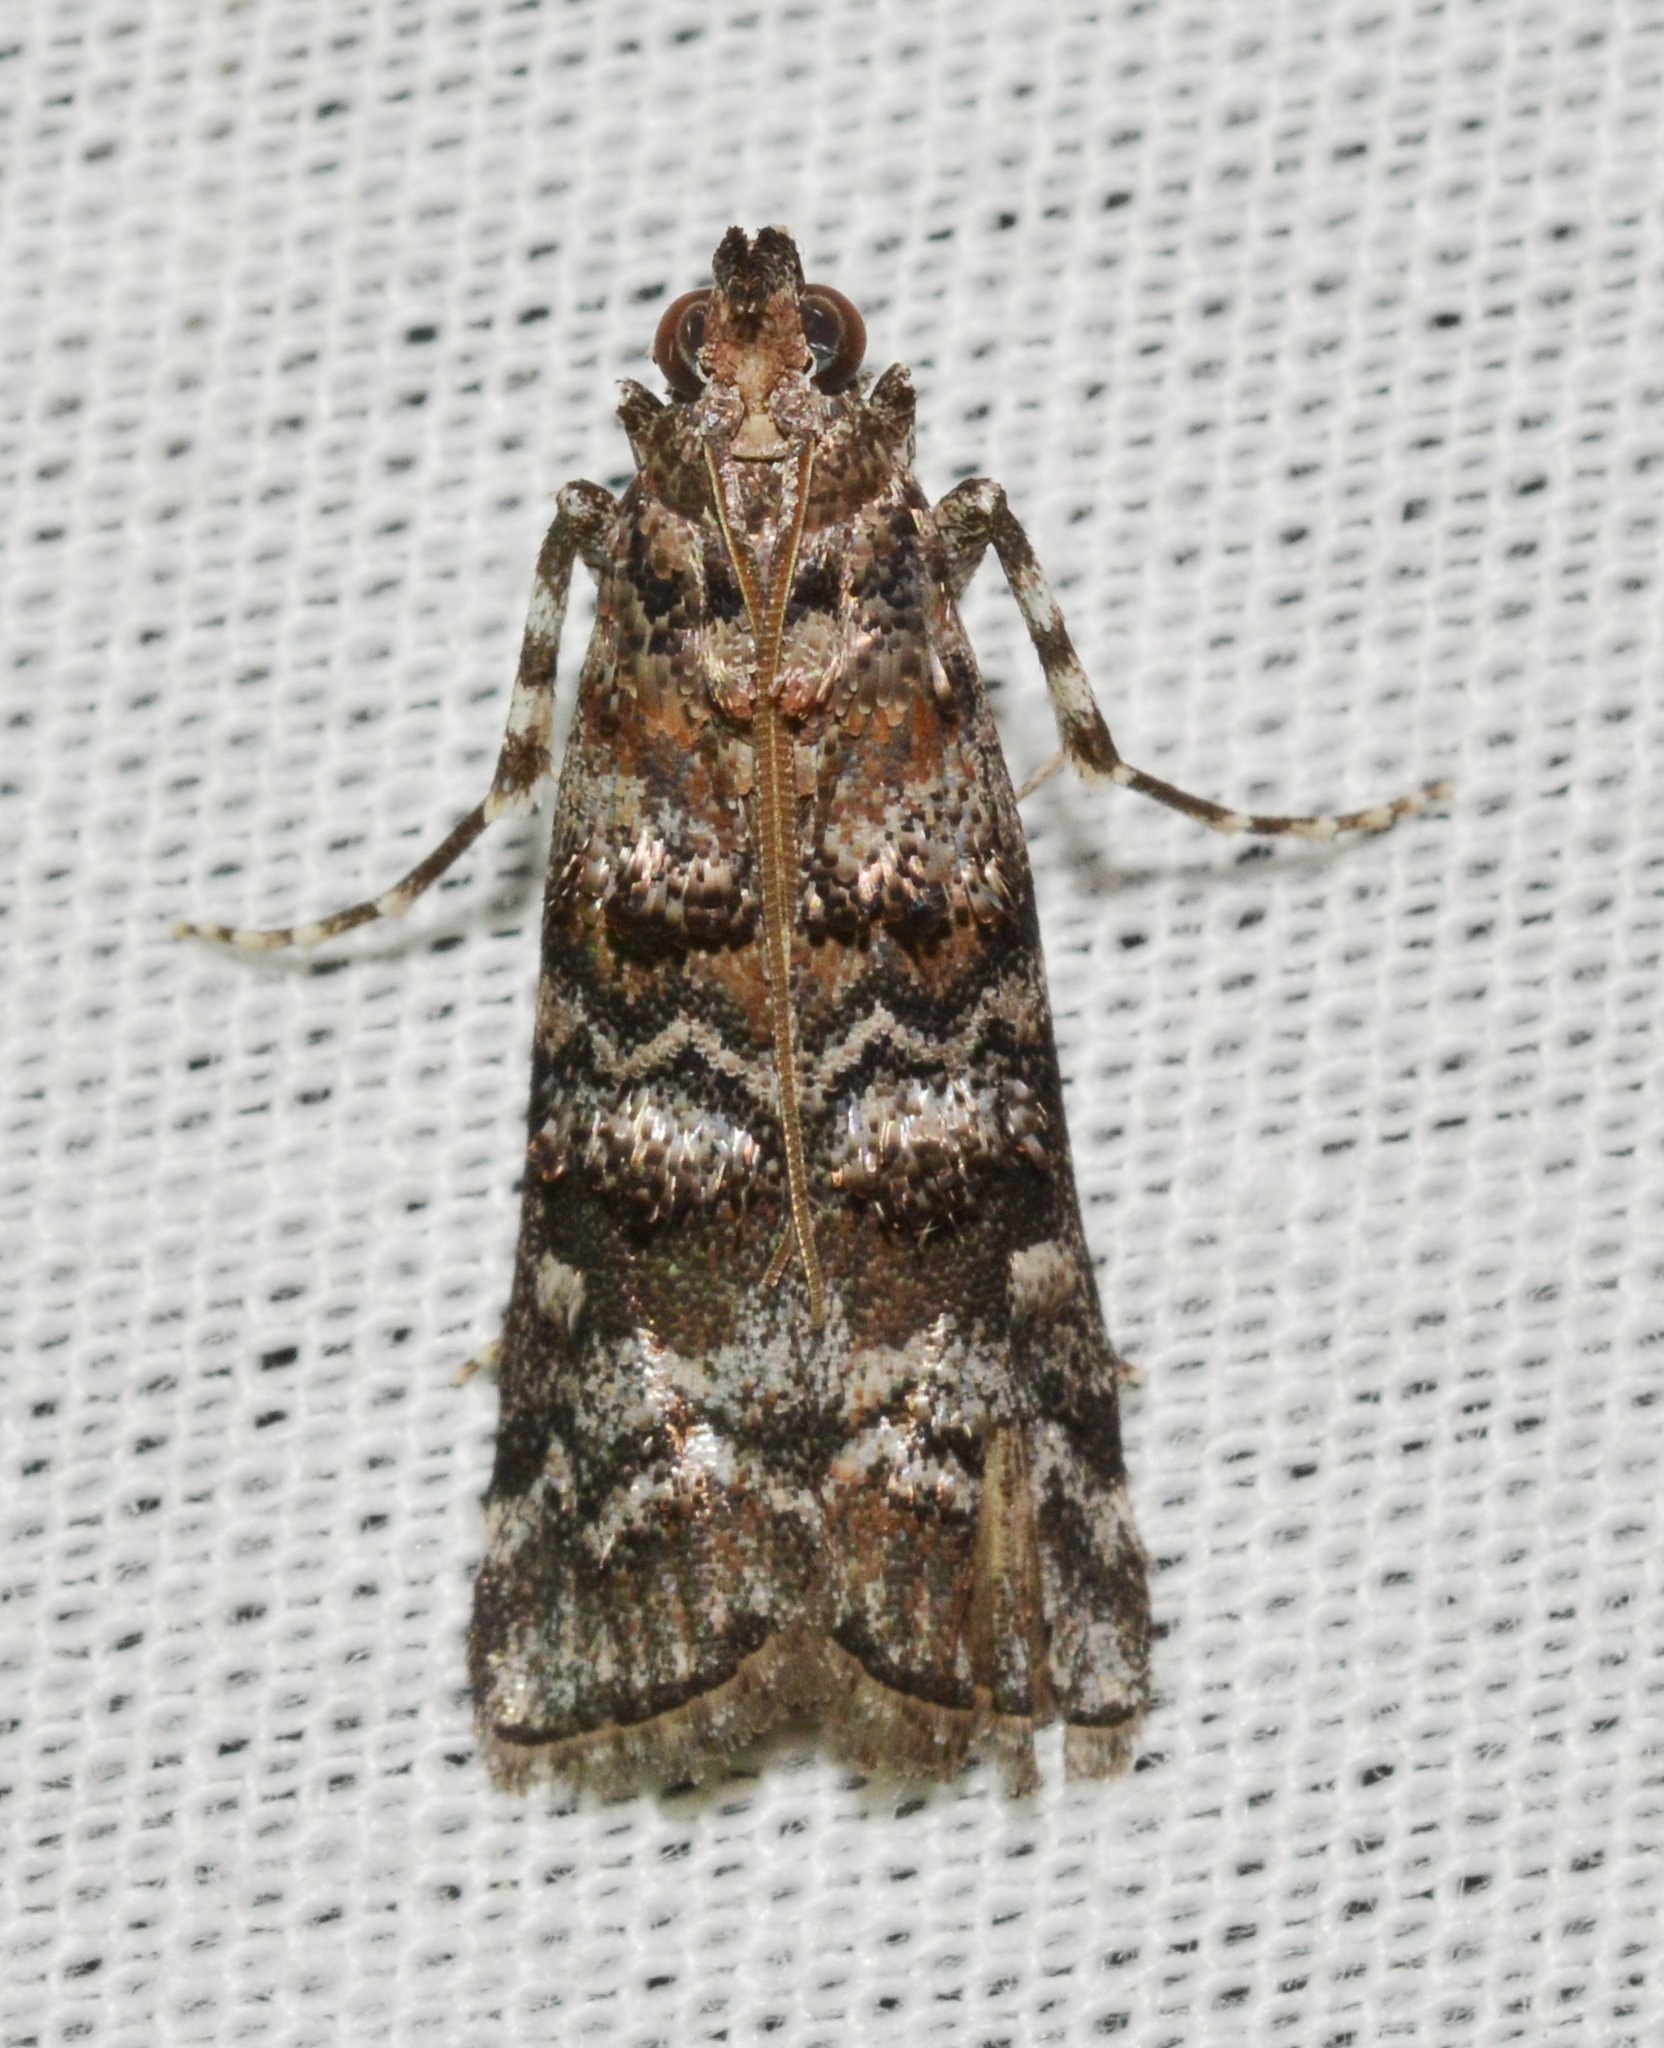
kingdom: Animalia
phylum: Arthropoda
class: Insecta
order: Lepidoptera
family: Pyralidae
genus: Dioryctria
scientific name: Dioryctria amatella
